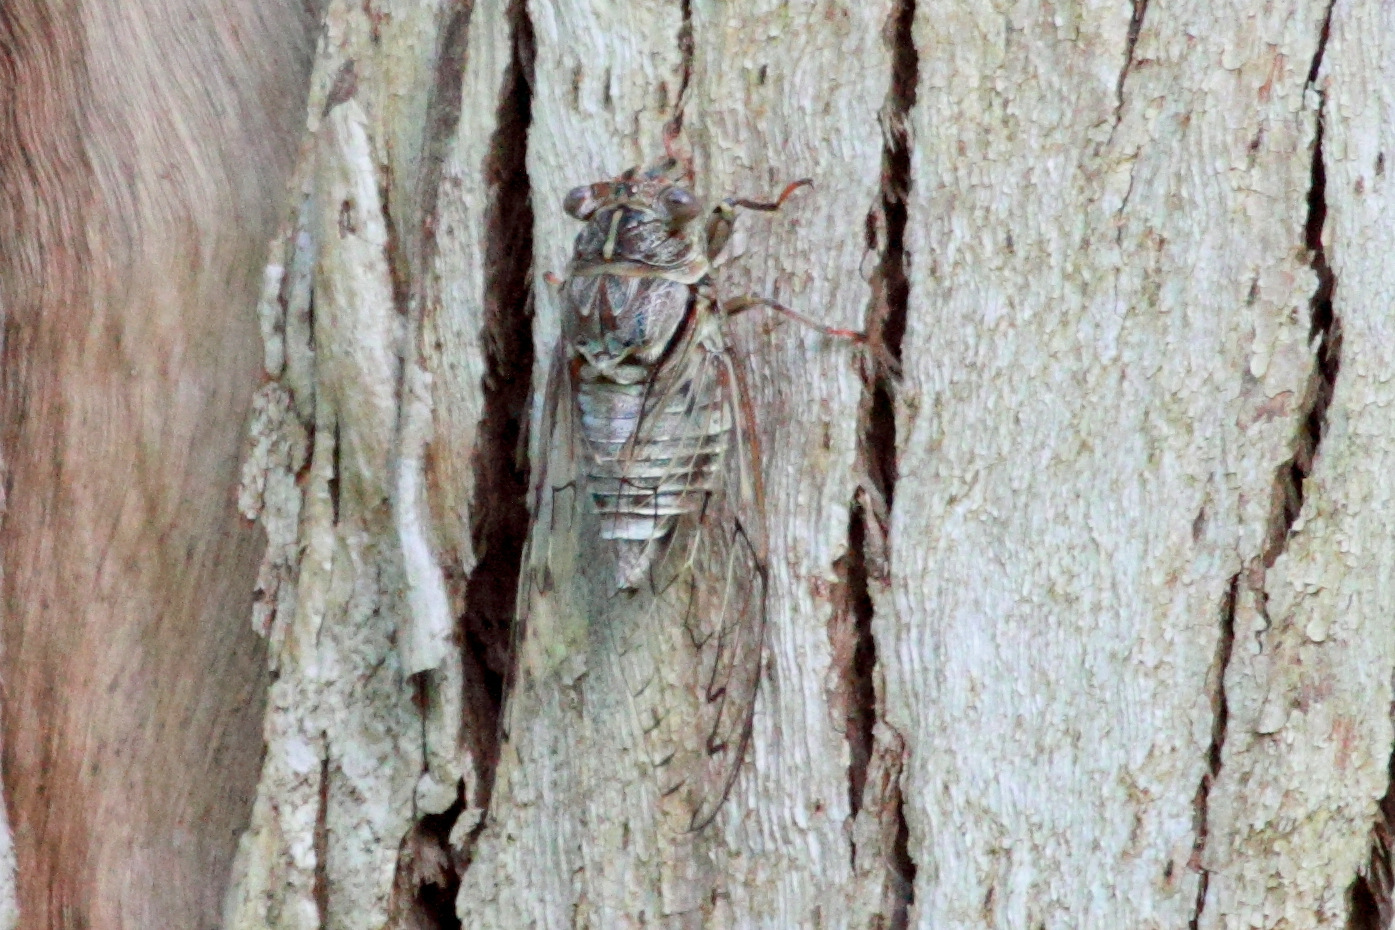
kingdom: Animalia
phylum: Arthropoda
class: Insecta
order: Hemiptera
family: Cicadidae
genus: Henicopsaltria
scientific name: Henicopsaltria eydouxii
